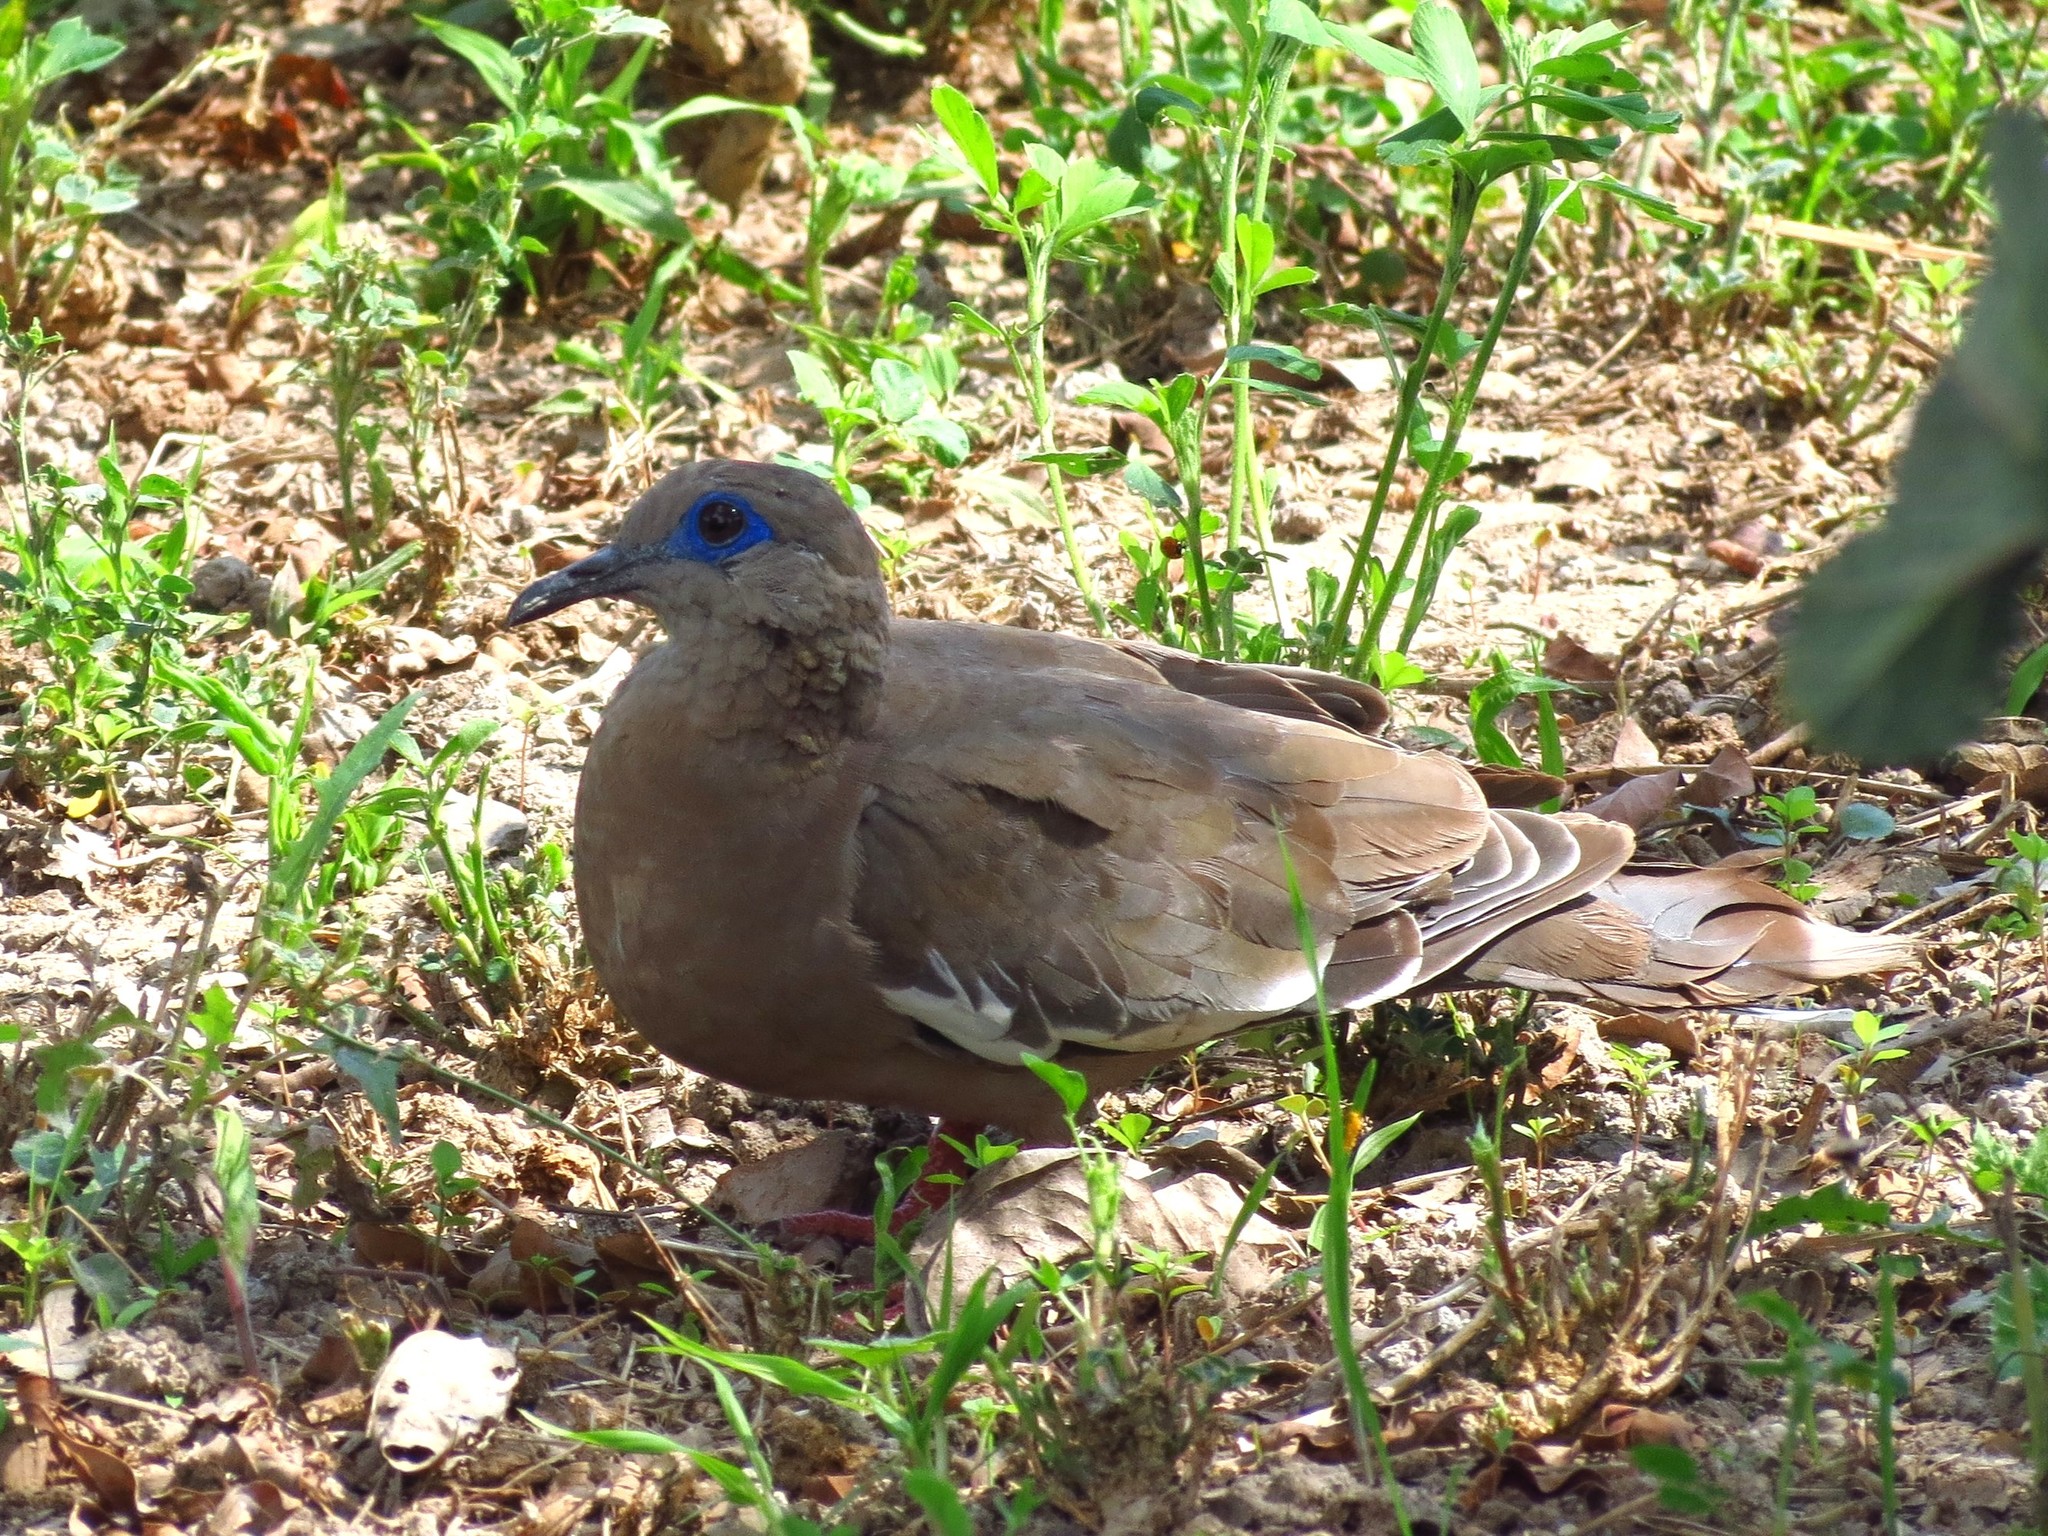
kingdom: Animalia
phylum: Chordata
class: Aves
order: Columbiformes
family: Columbidae
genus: Zenaida
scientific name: Zenaida meloda
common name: West peruvian dove
